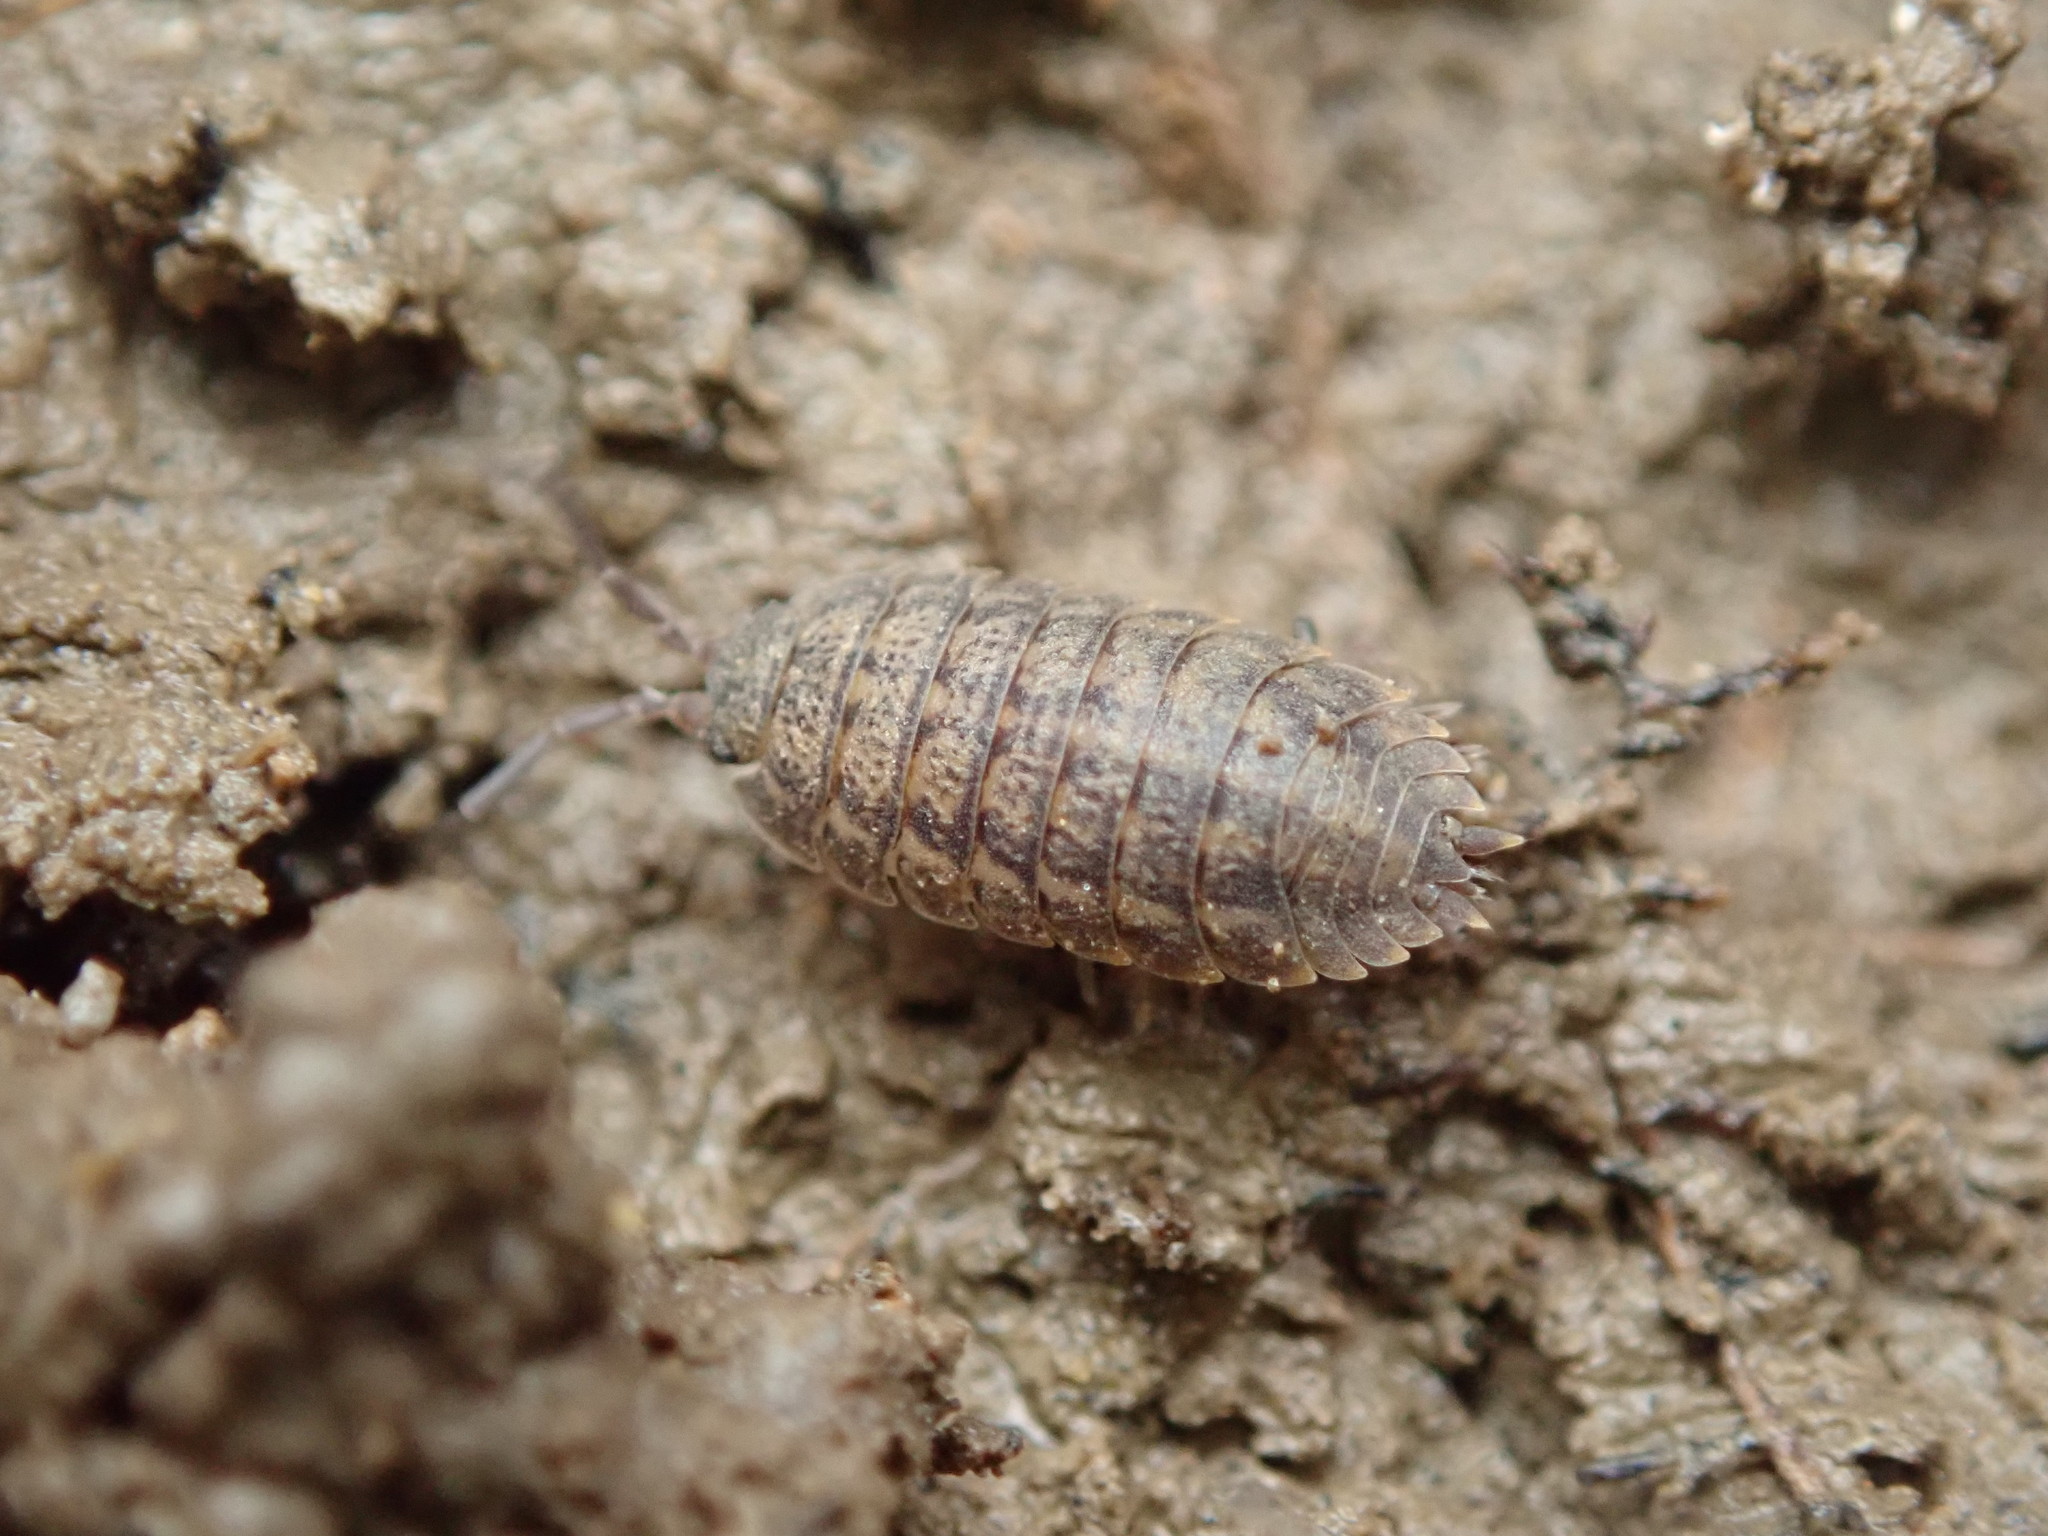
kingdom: Animalia
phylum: Arthropoda
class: Malacostraca
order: Isopoda
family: Trachelipodidae
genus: Trachelipus
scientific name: Trachelipus rathkii
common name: Isopod
